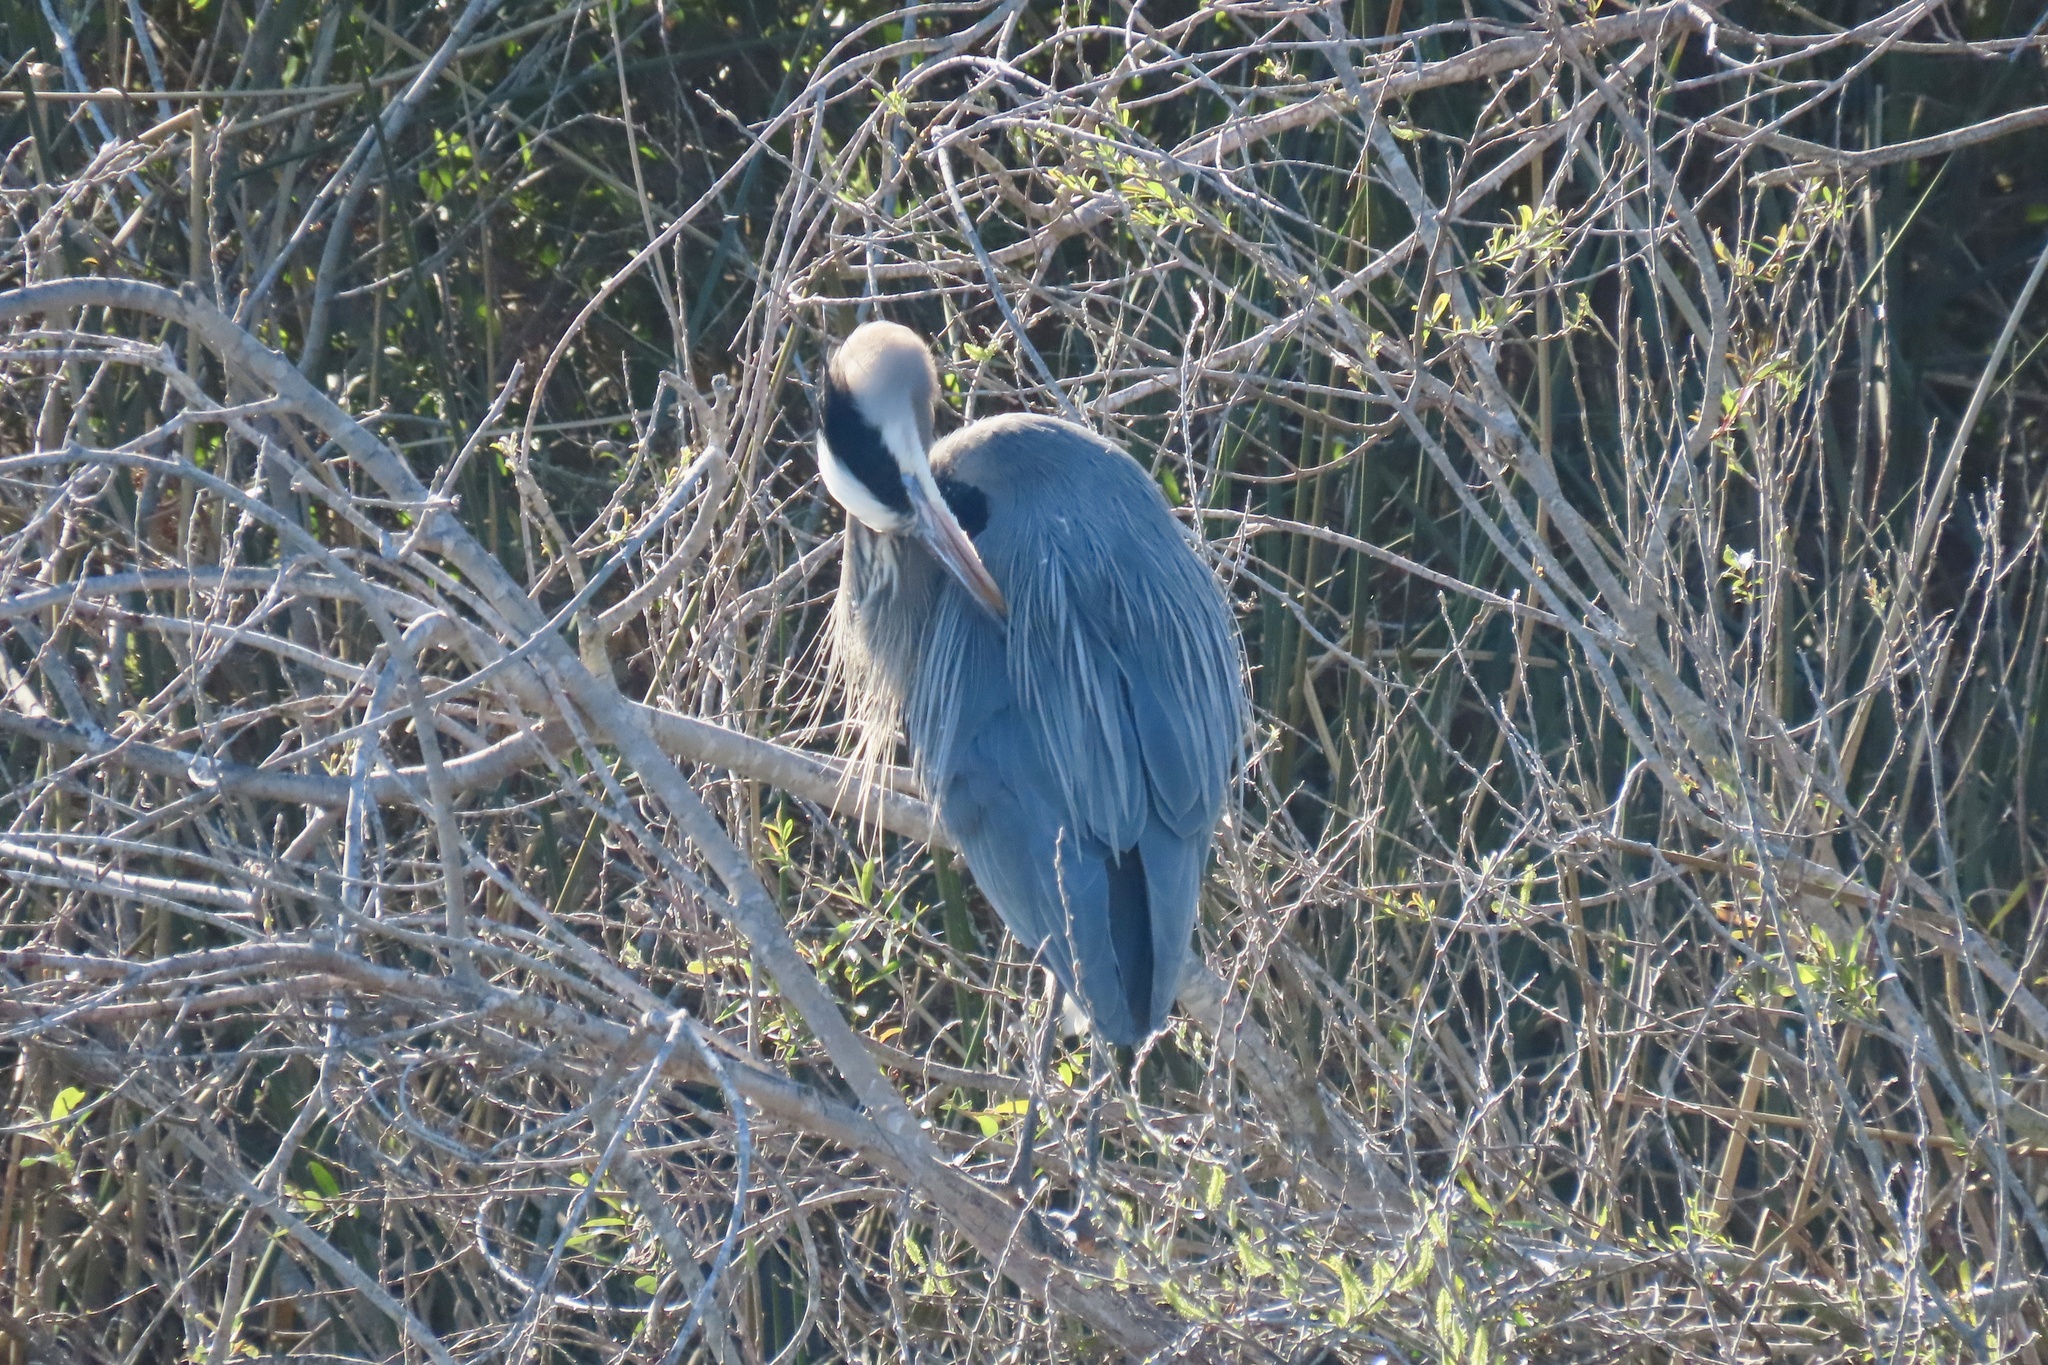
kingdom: Animalia
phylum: Chordata
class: Aves
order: Pelecaniformes
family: Ardeidae
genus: Ardea
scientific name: Ardea herodias
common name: Great blue heron
